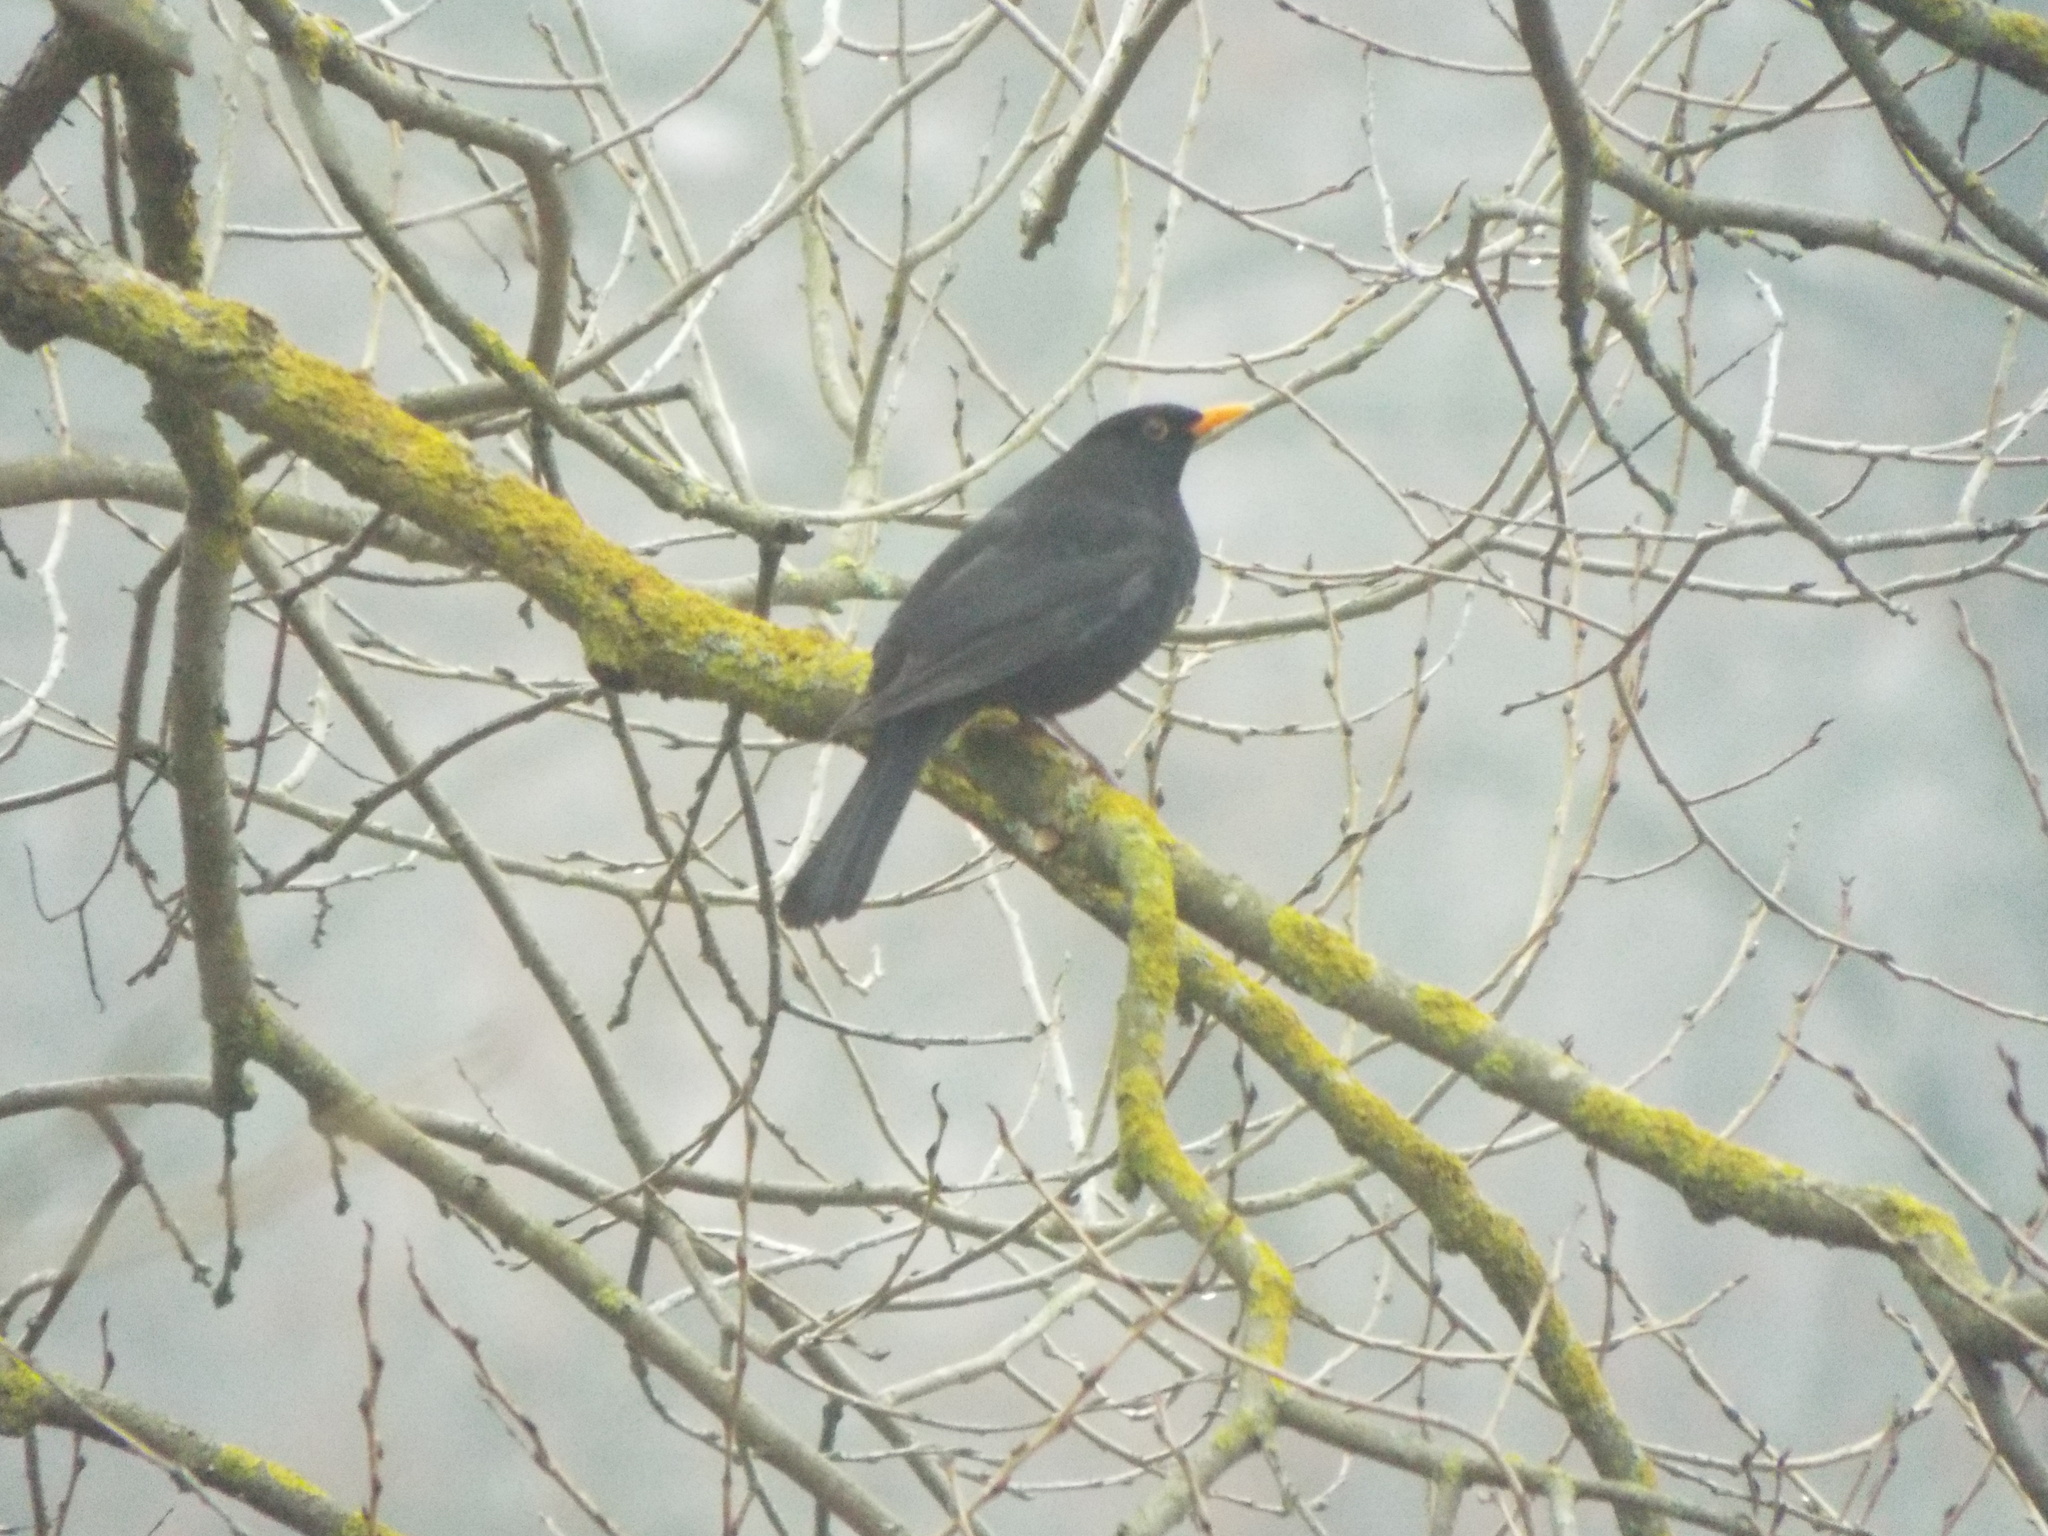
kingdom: Animalia
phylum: Chordata
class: Aves
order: Passeriformes
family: Turdidae
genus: Turdus
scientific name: Turdus merula
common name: Common blackbird
